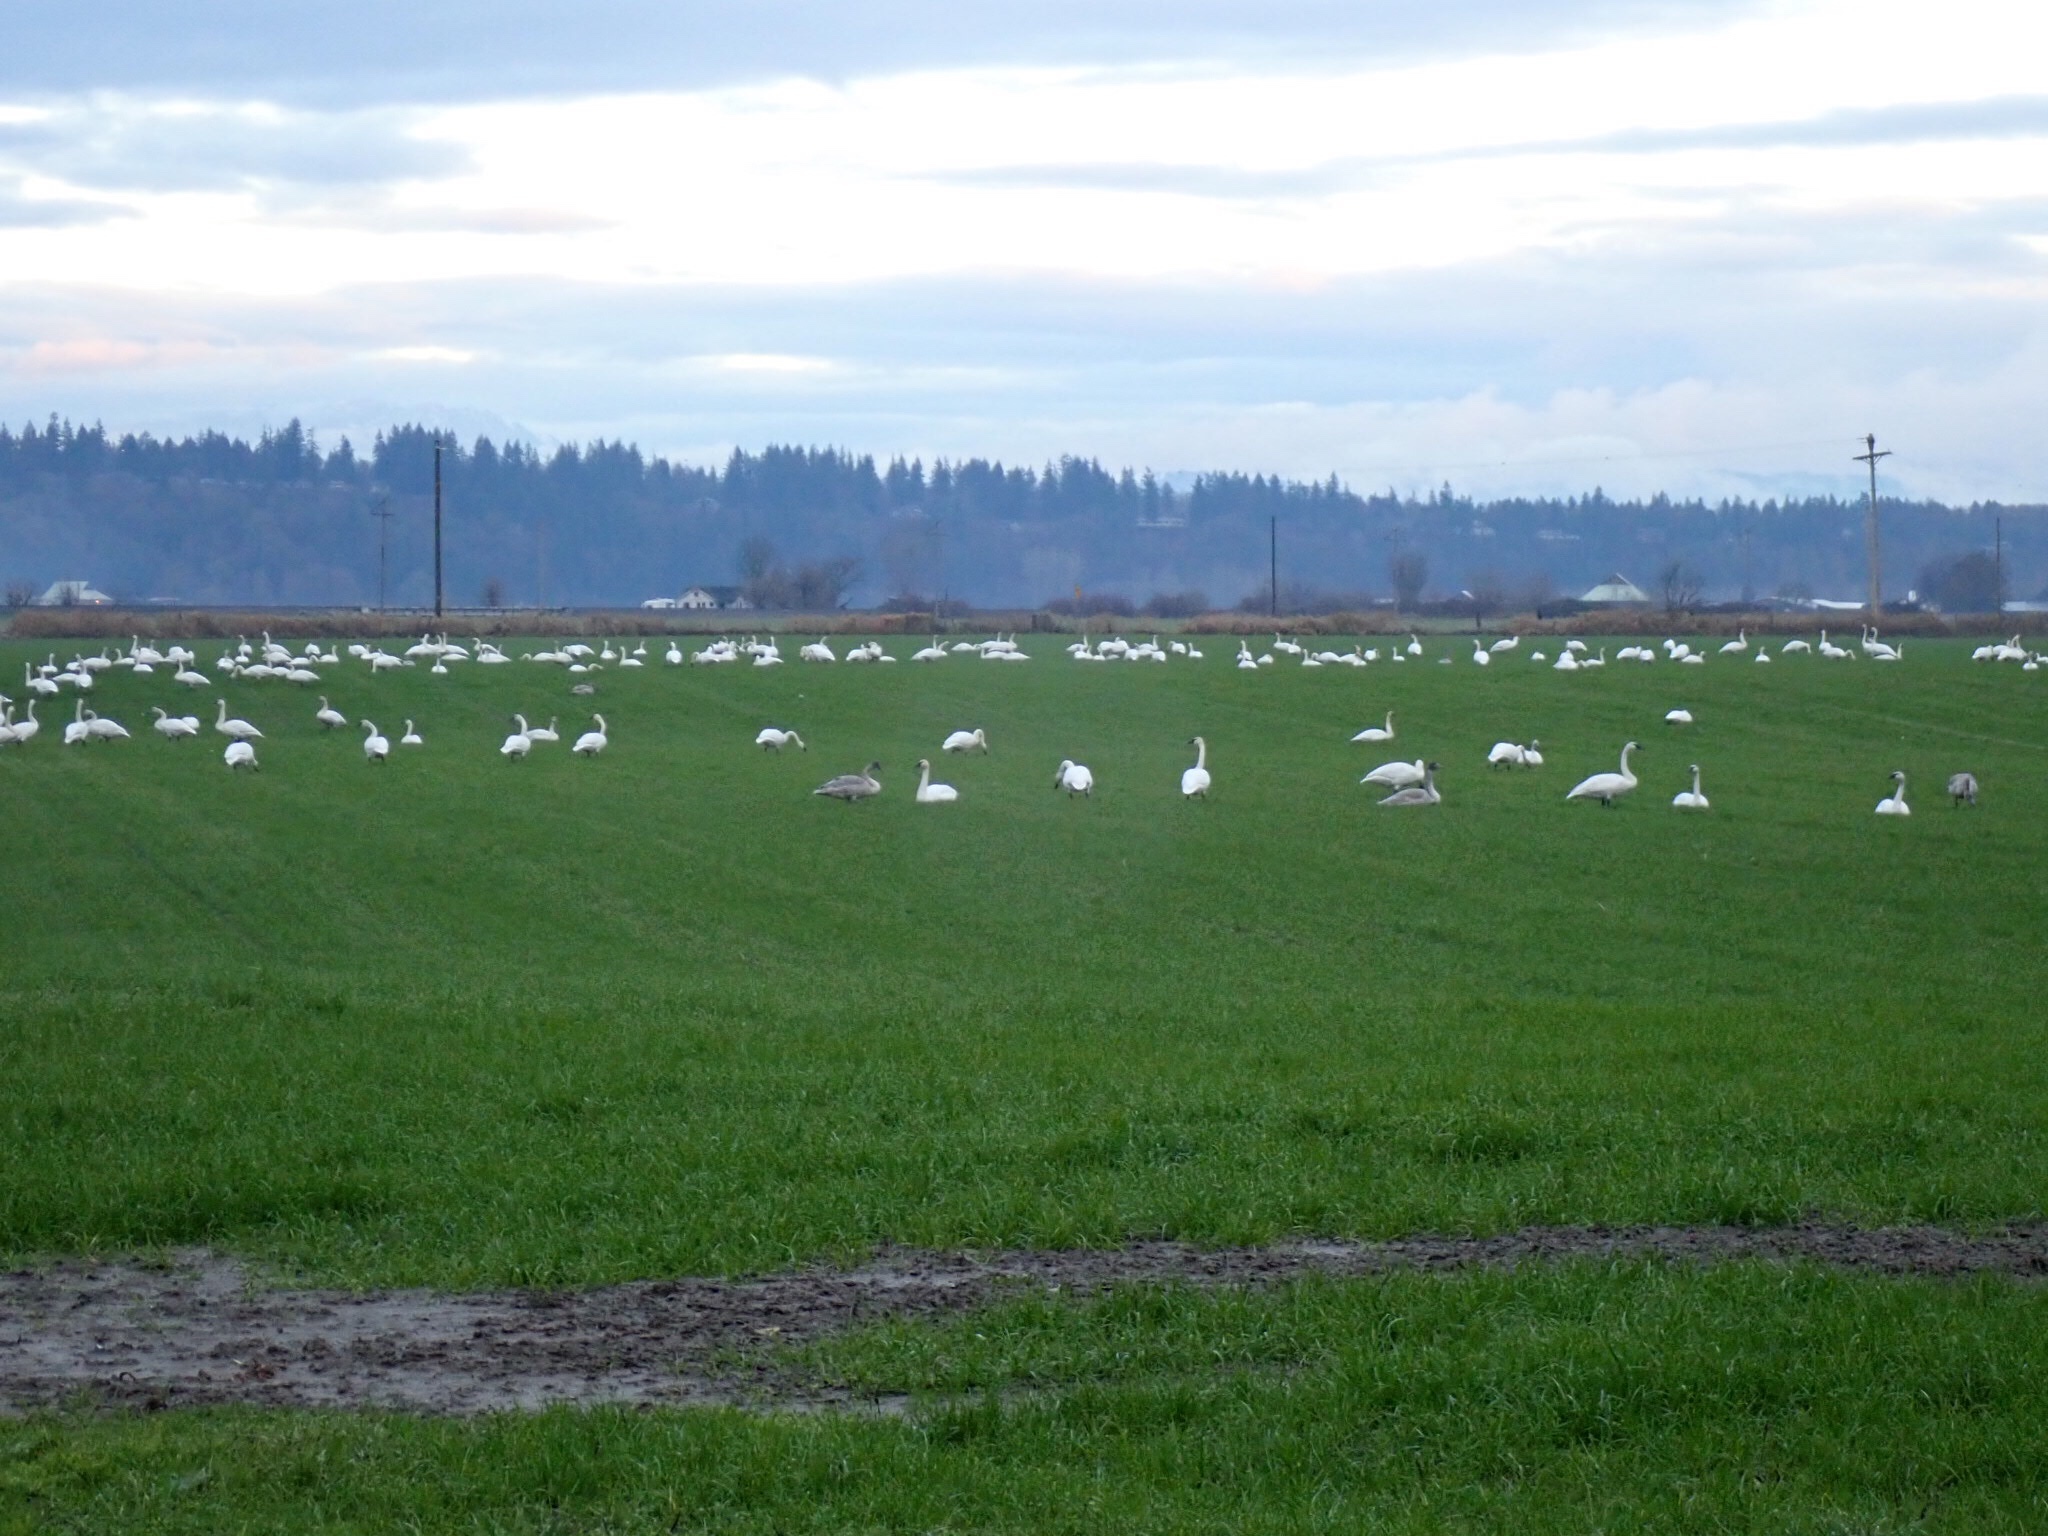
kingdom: Animalia
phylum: Chordata
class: Aves
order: Anseriformes
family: Anatidae
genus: Cygnus
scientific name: Cygnus columbianus
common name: Tundra swan
